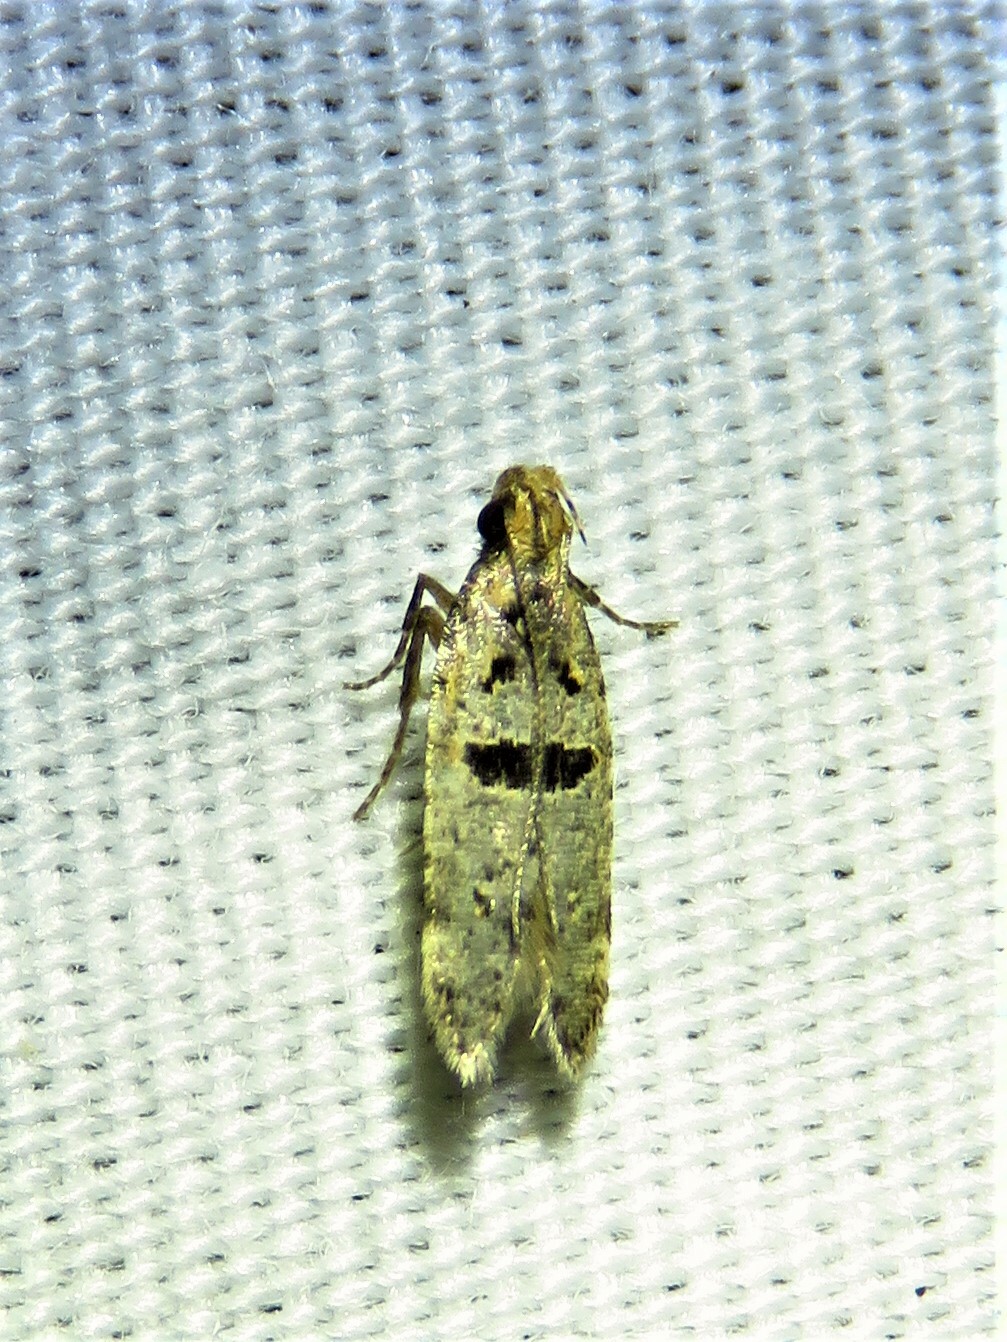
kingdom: Animalia
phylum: Arthropoda
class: Insecta
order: Lepidoptera
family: Gelechiidae
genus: Deltophora
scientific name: Deltophora glandiferella
